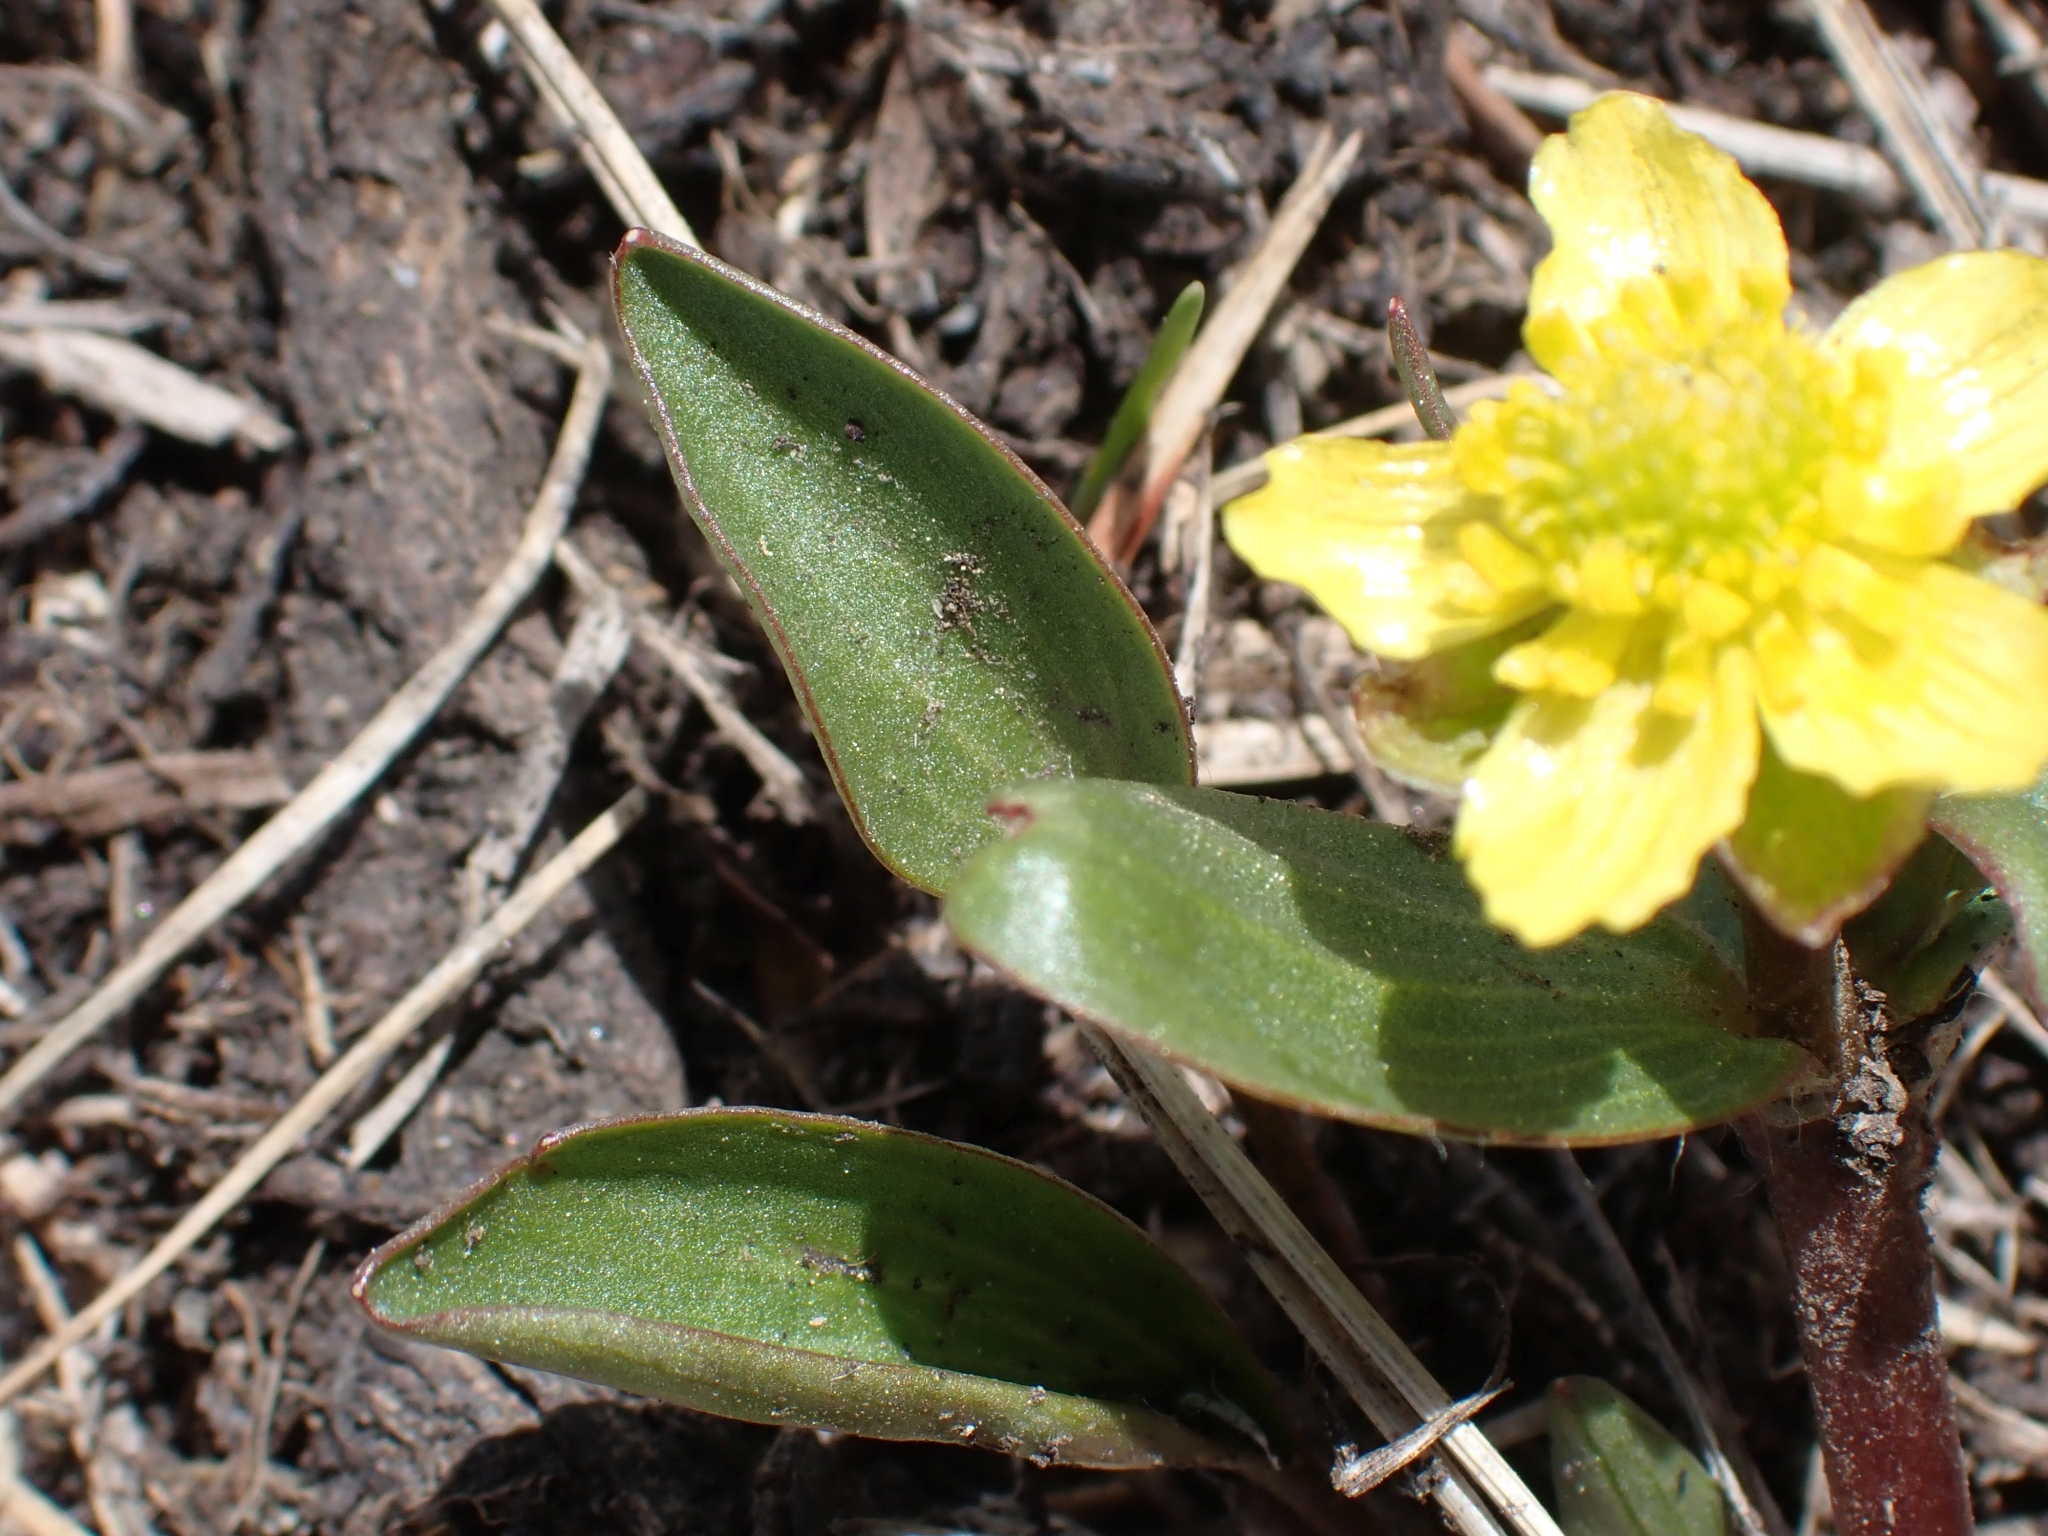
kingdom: Plantae
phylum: Tracheophyta
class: Magnoliopsida
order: Ranunculales
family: Ranunculaceae
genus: Ranunculus
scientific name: Ranunculus glaberrimus
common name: Sagebrush buttercup
